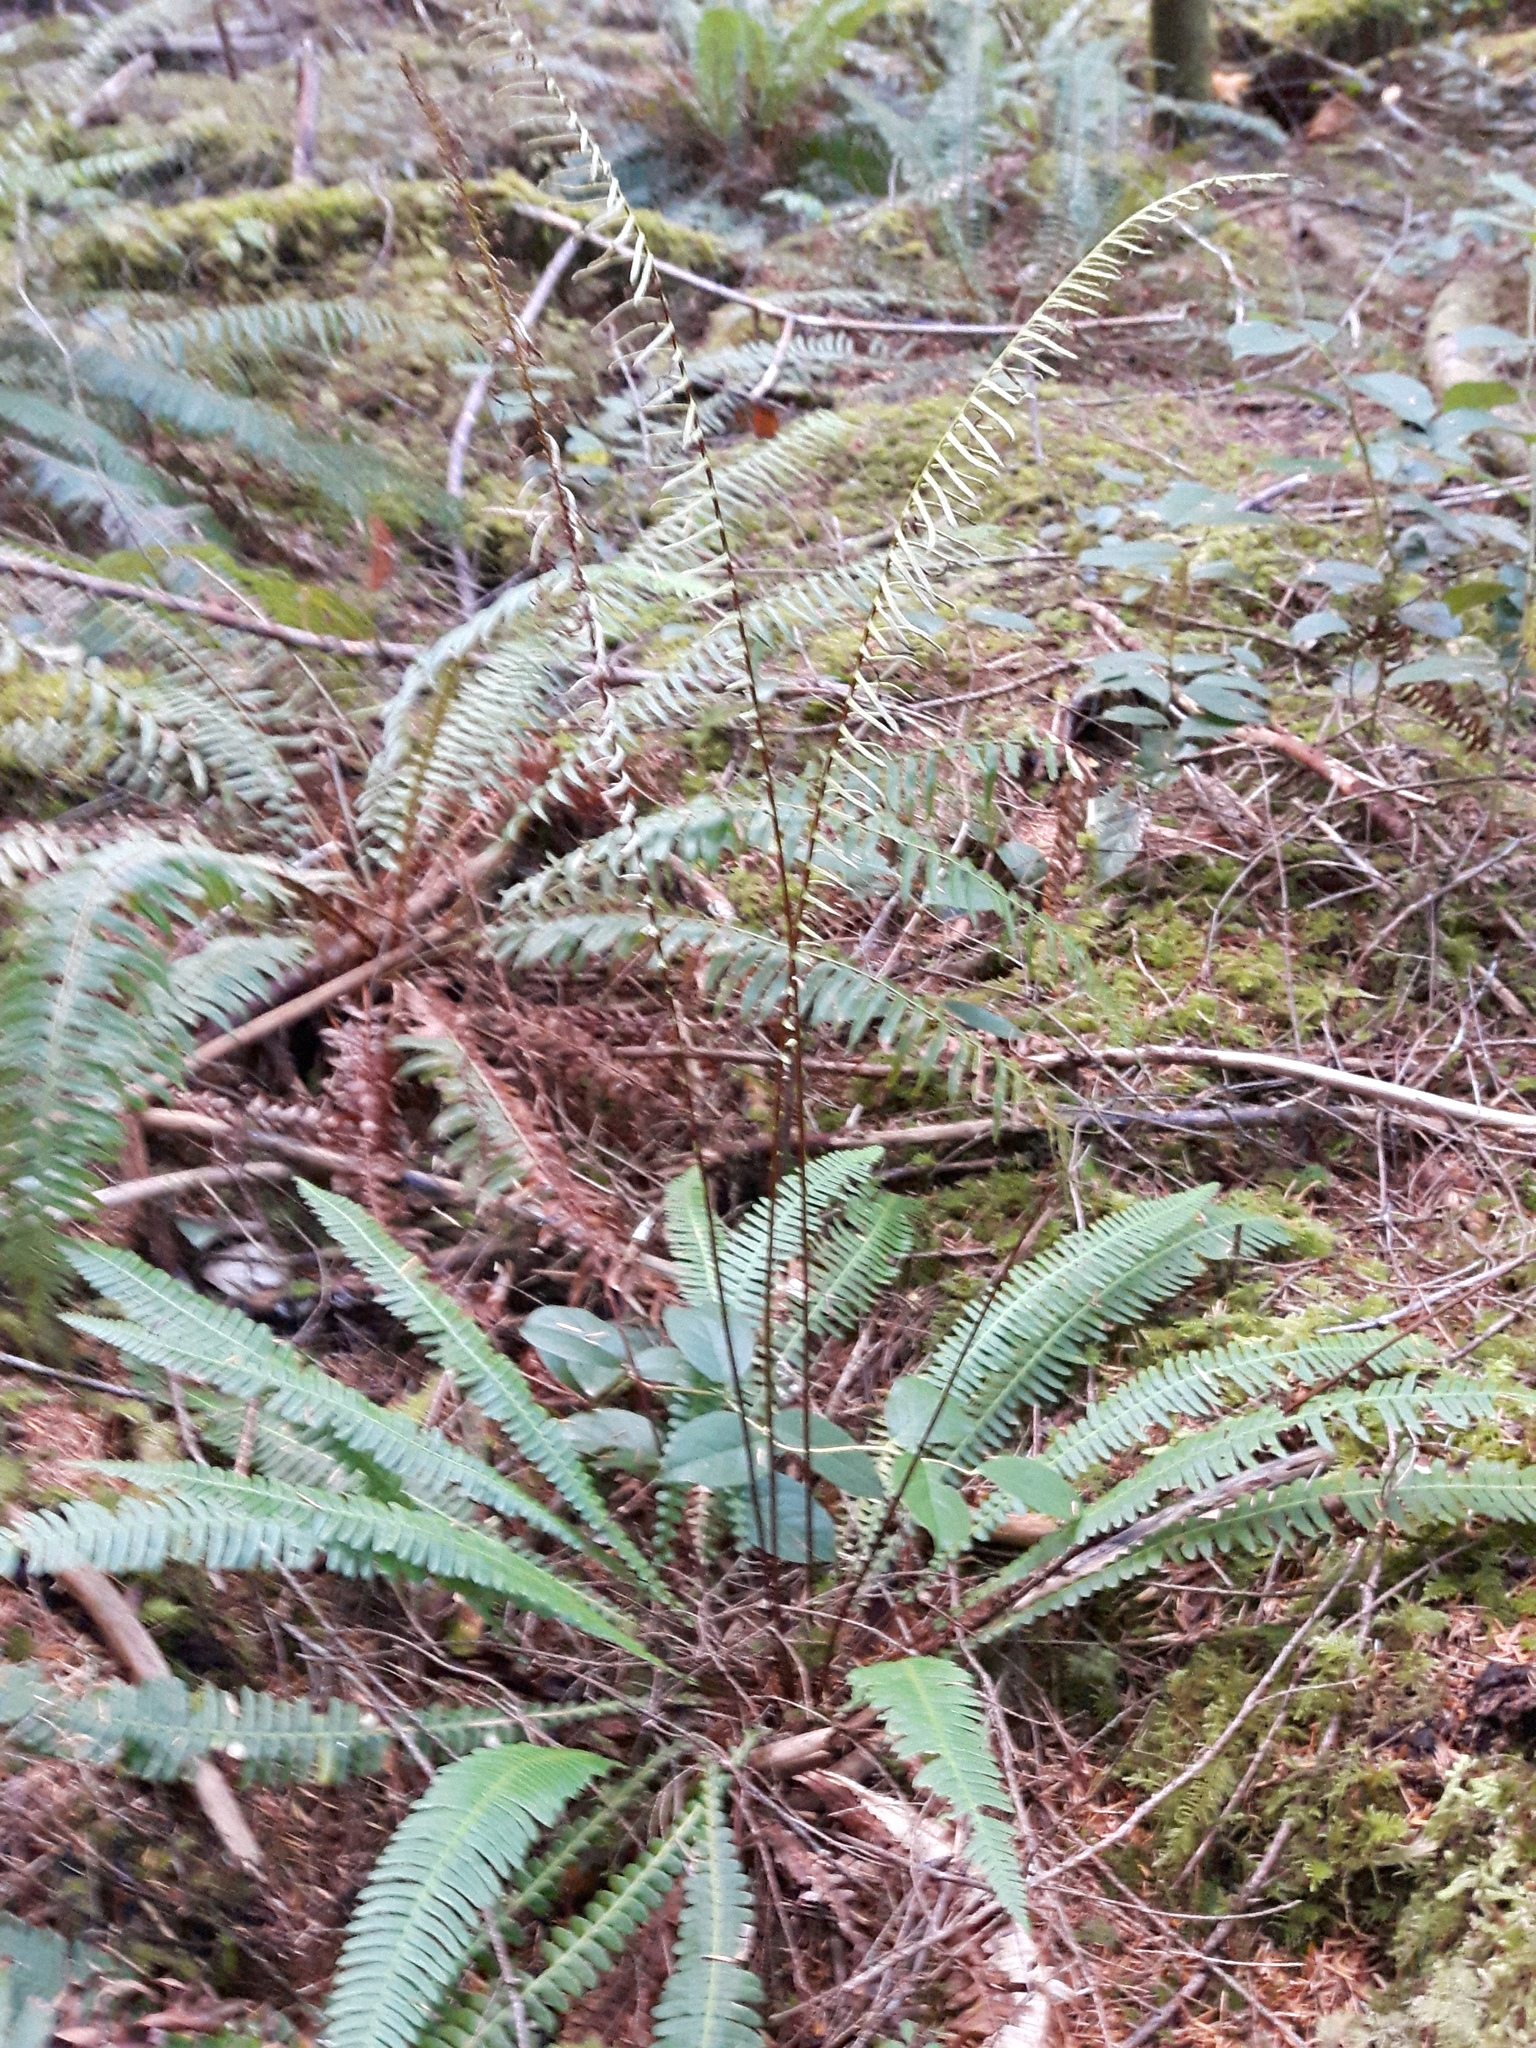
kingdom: Plantae
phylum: Tracheophyta
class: Polypodiopsida
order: Polypodiales
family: Blechnaceae
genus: Struthiopteris
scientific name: Struthiopteris spicant
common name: Deer fern
